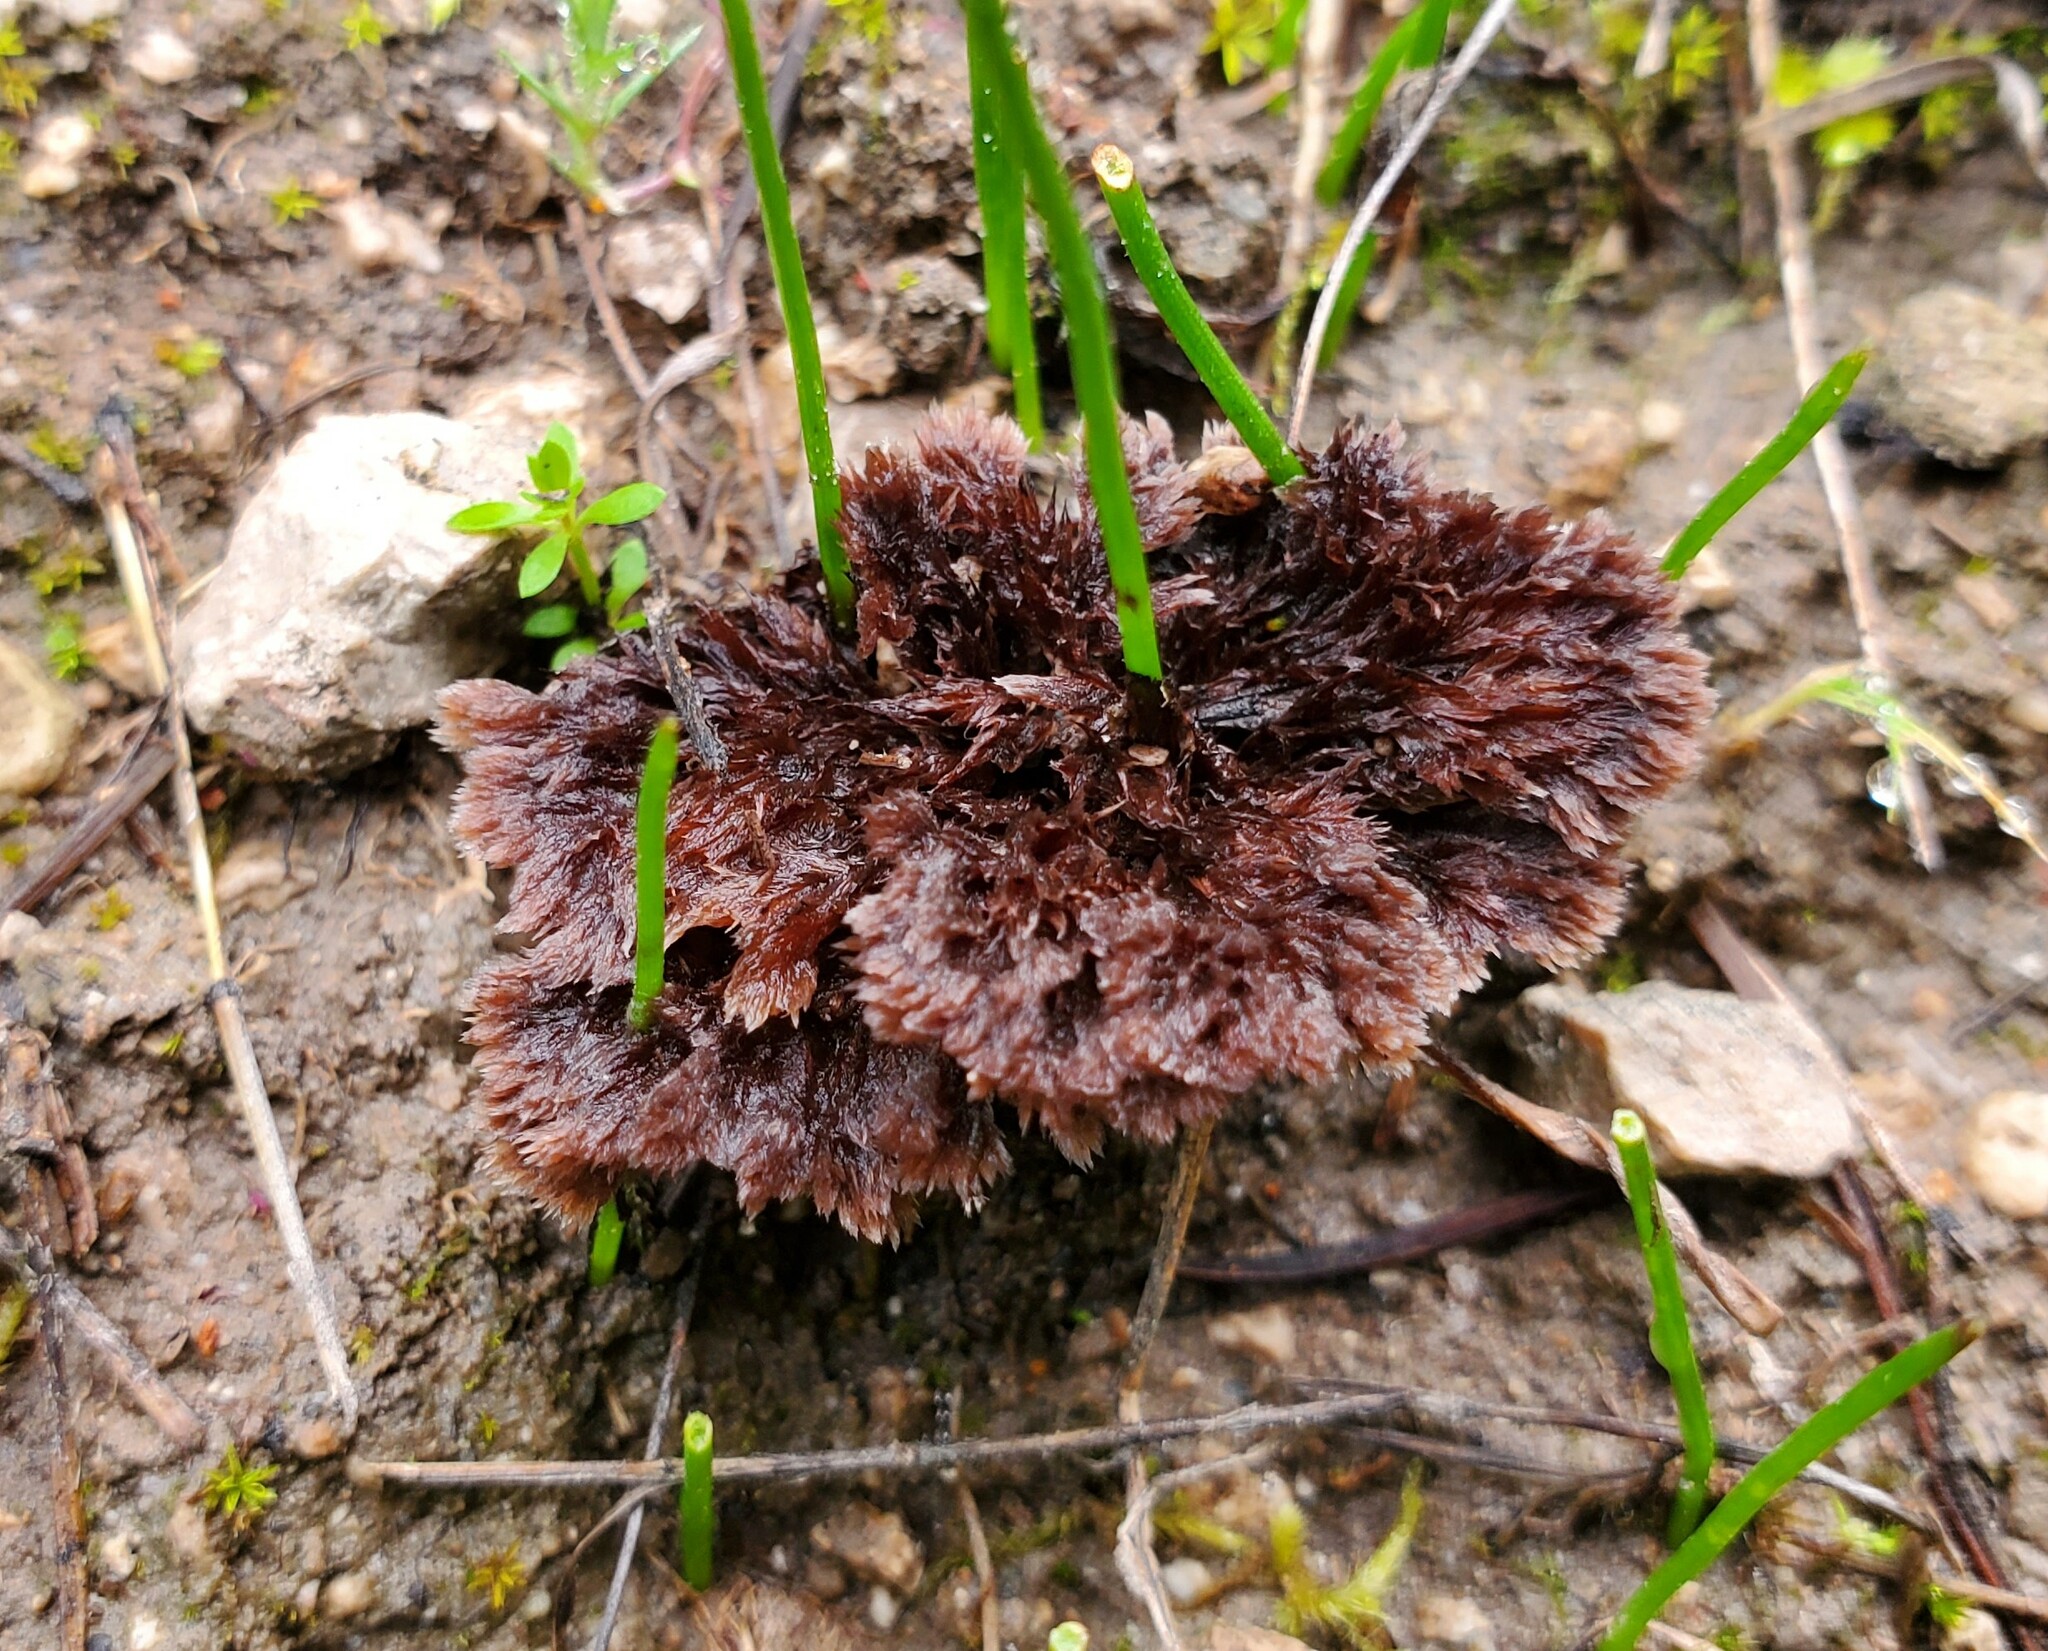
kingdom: Fungi
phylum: Basidiomycota
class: Agaricomycetes
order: Thelephorales
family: Thelephoraceae
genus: Thelephora
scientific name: Thelephora terrestris
